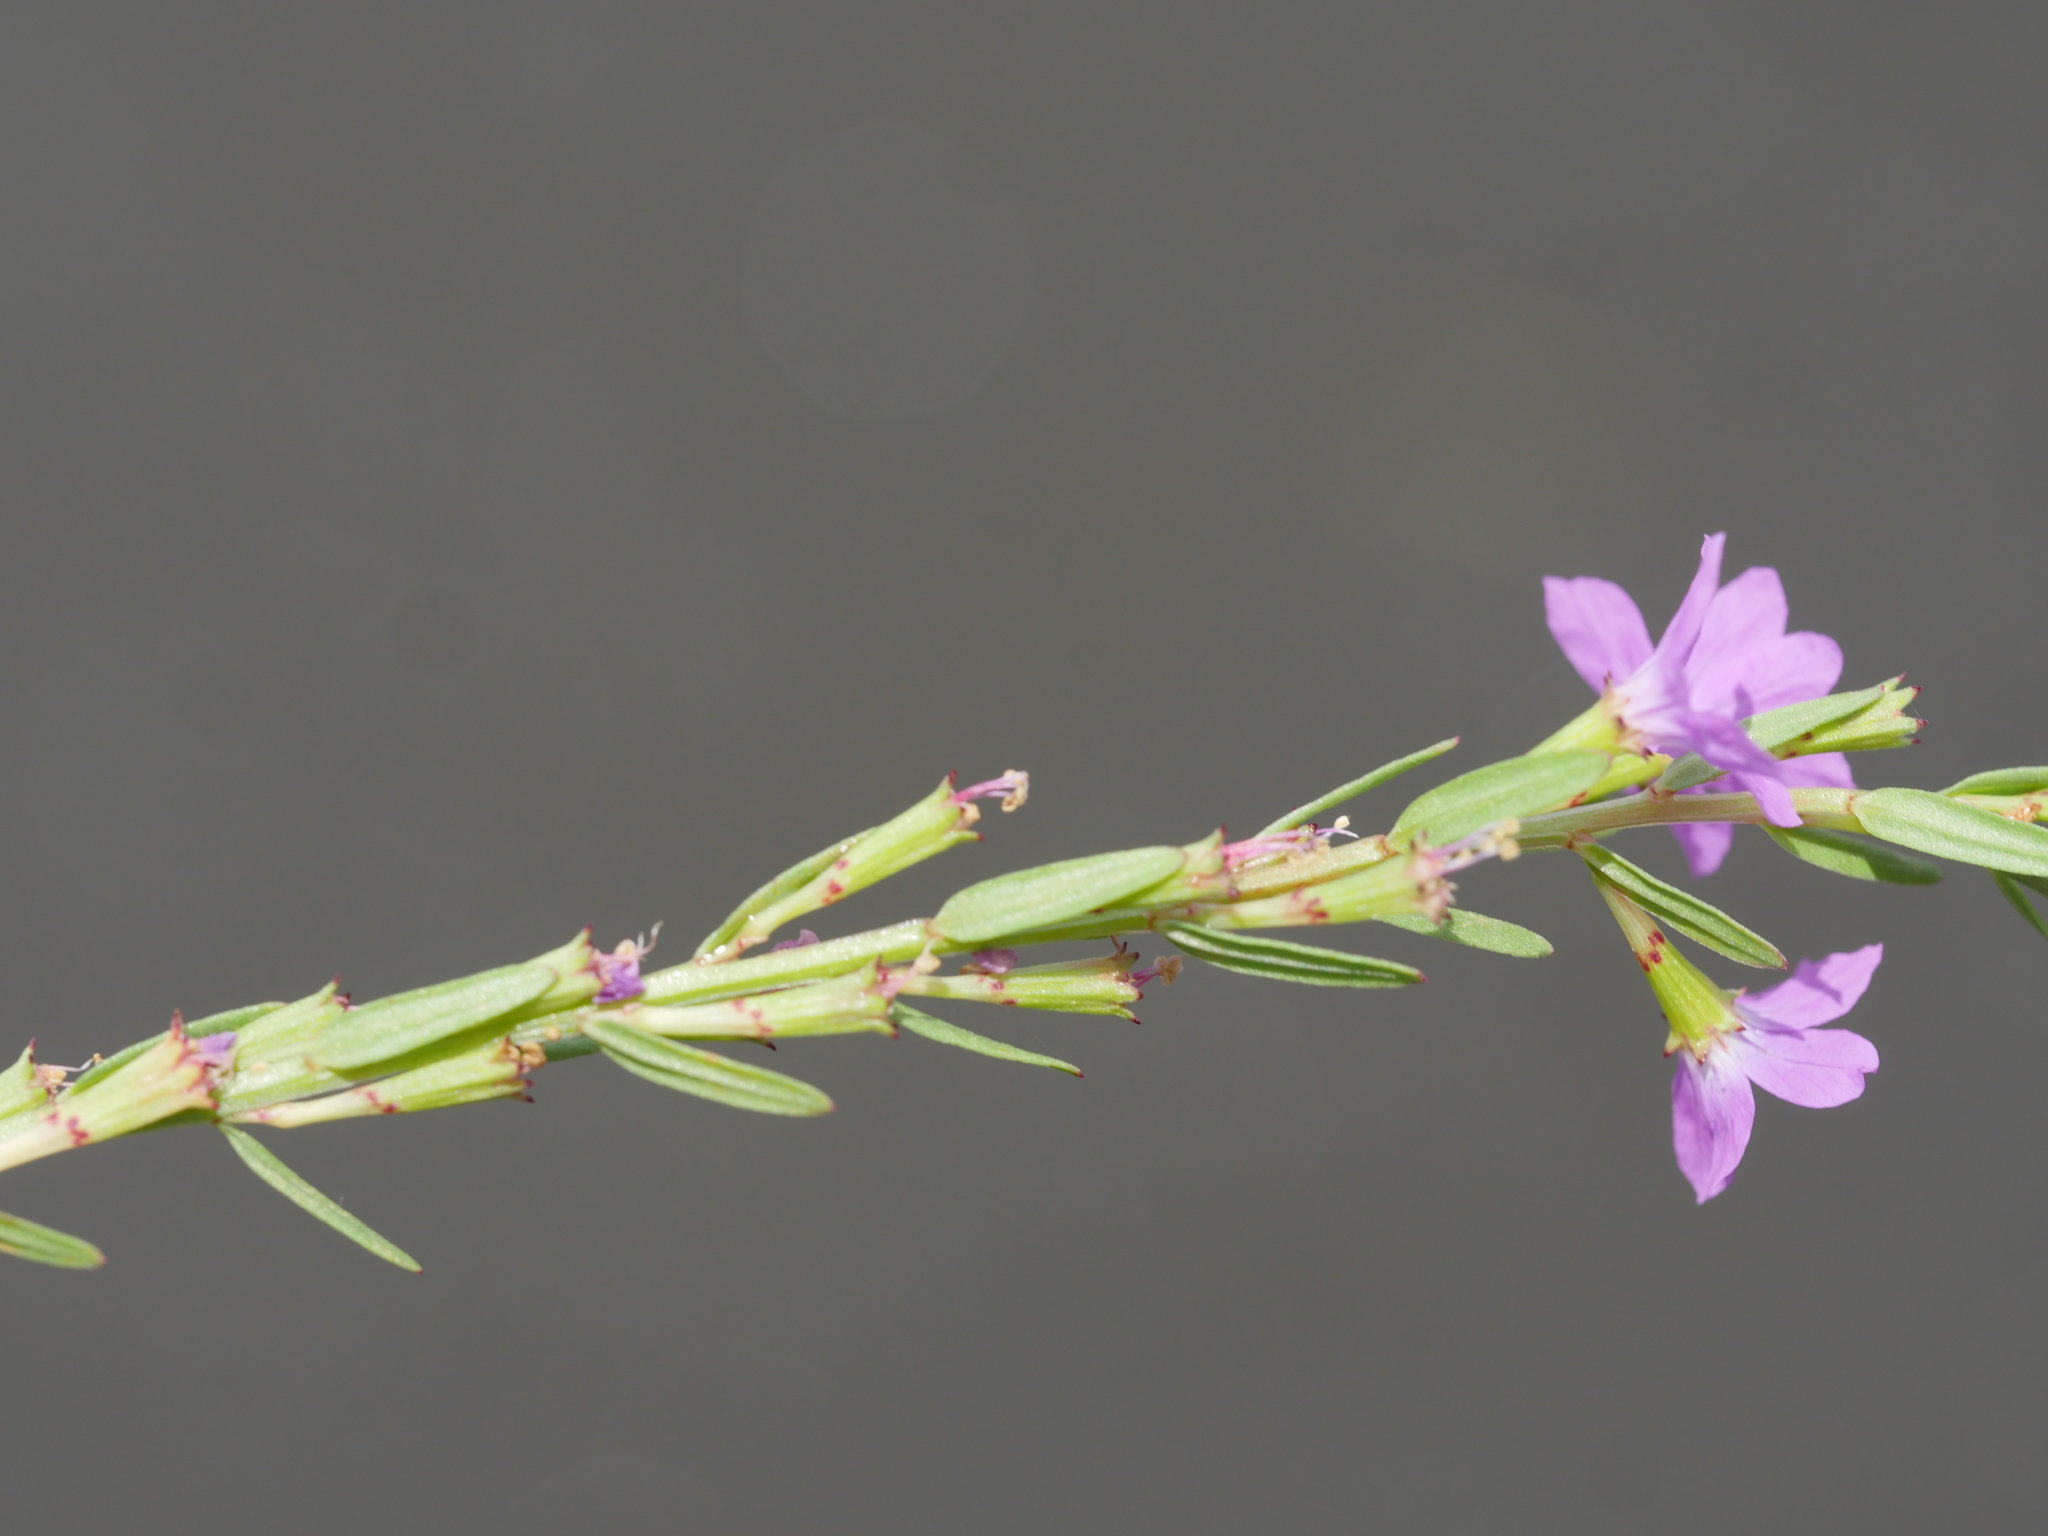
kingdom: Plantae
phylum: Tracheophyta
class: Magnoliopsida
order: Myrtales
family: Lythraceae
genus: Lythrum
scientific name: Lythrum junceum
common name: False grass-poly
